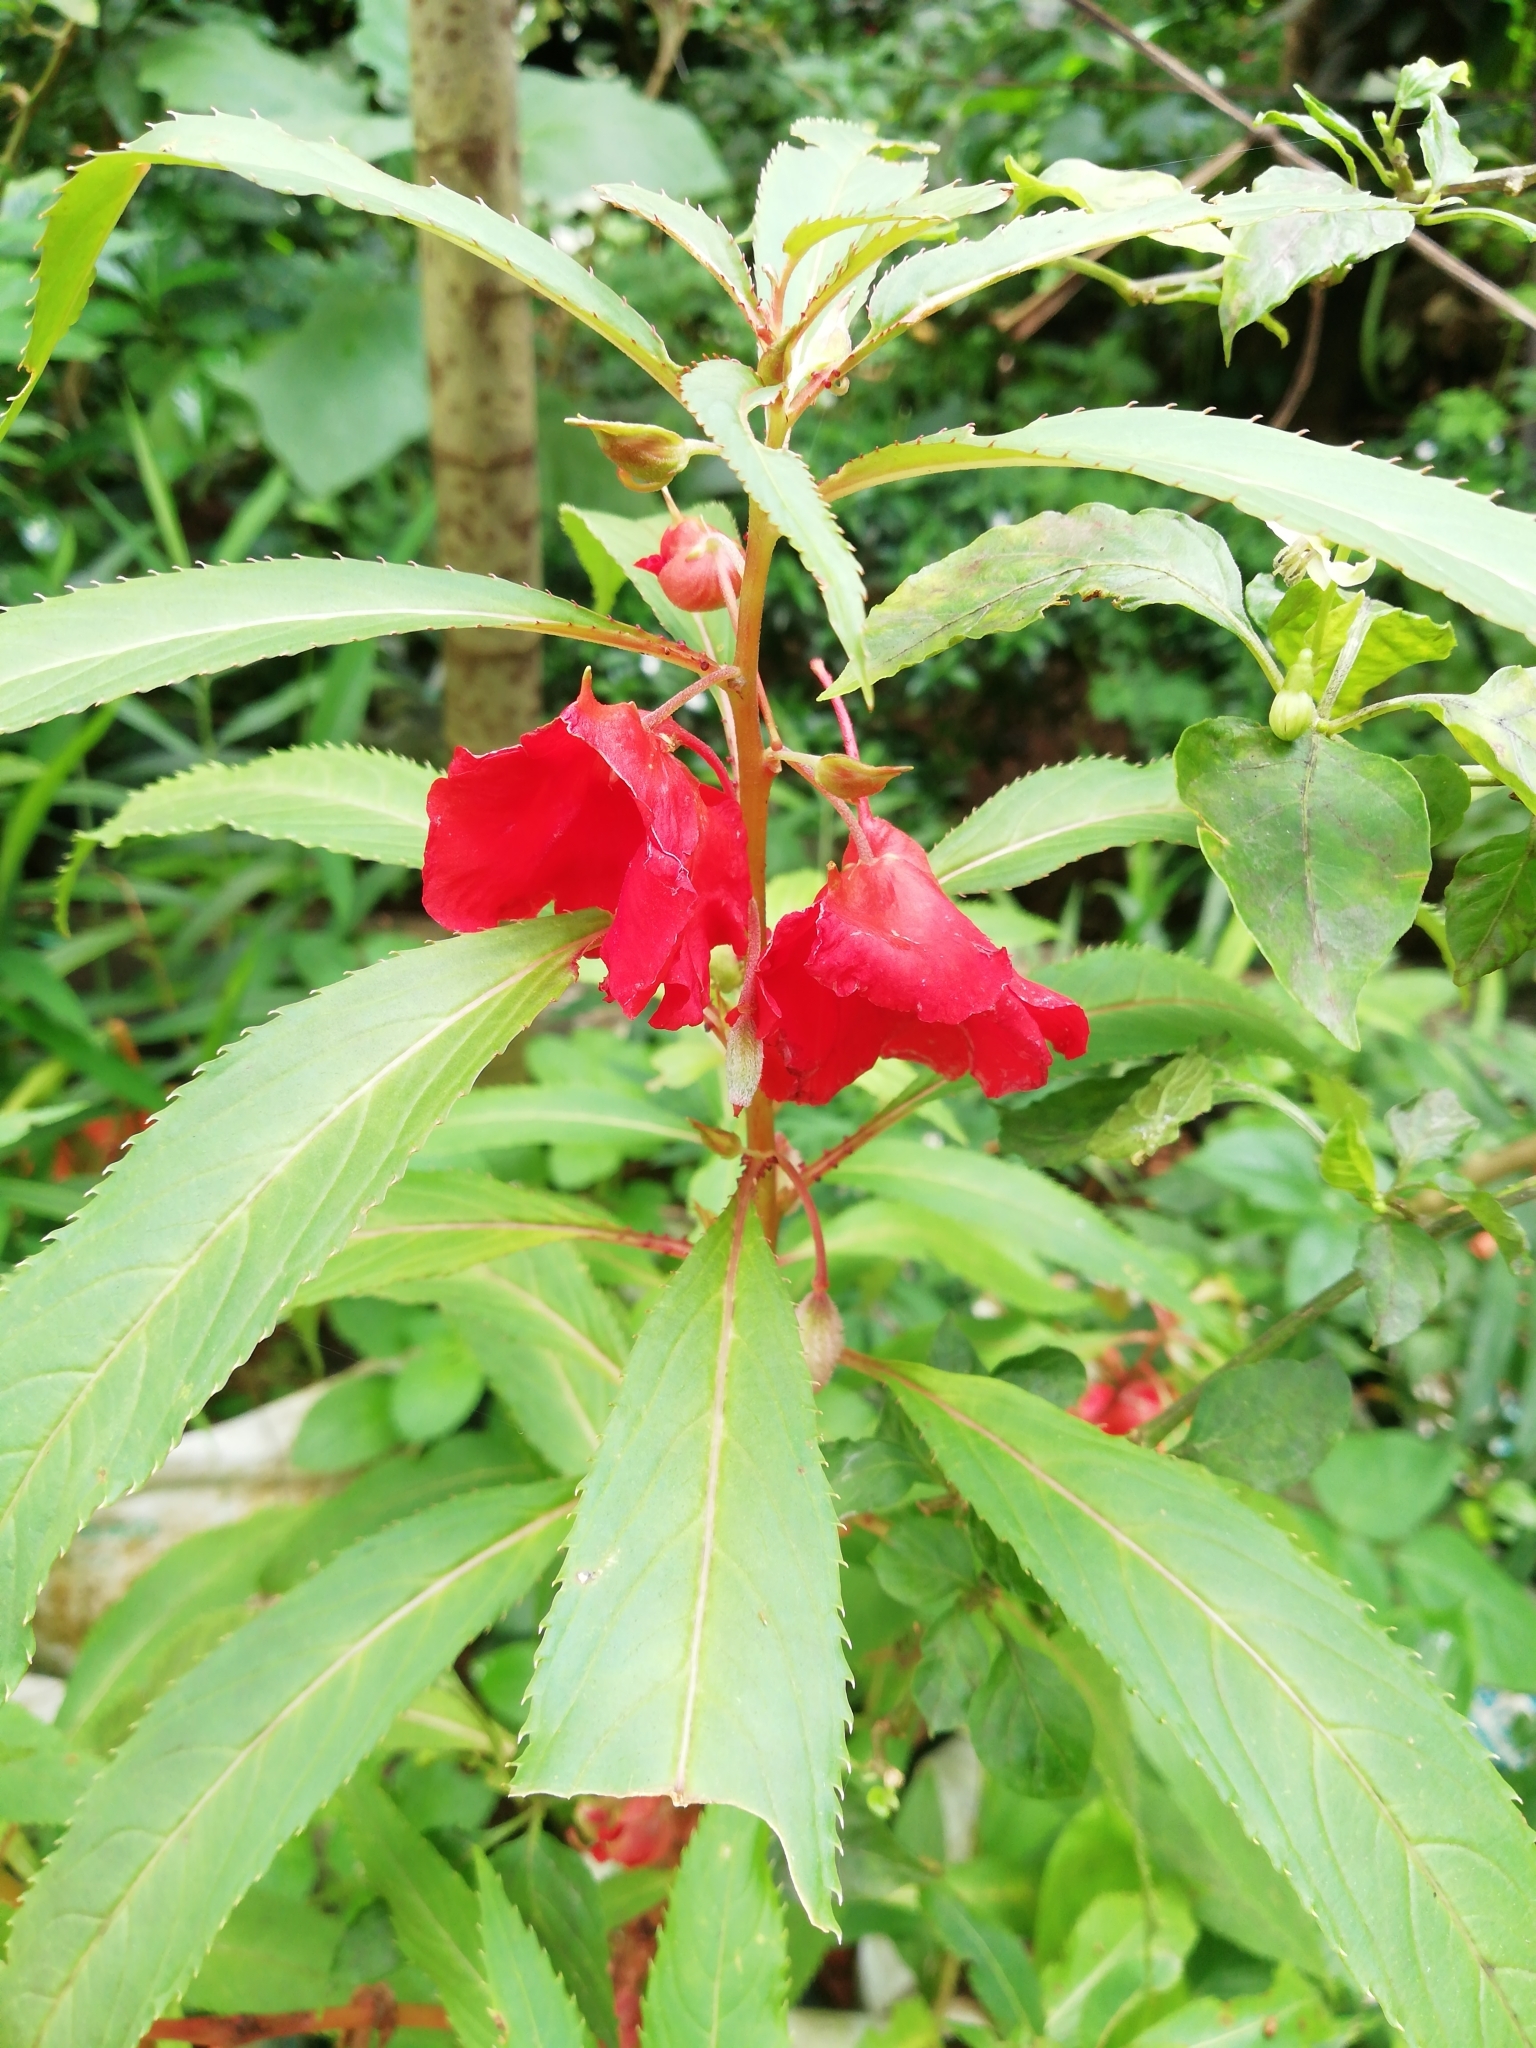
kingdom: Plantae
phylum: Tracheophyta
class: Magnoliopsida
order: Ericales
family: Balsaminaceae
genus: Impatiens
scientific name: Impatiens balsamina
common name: Balsam
